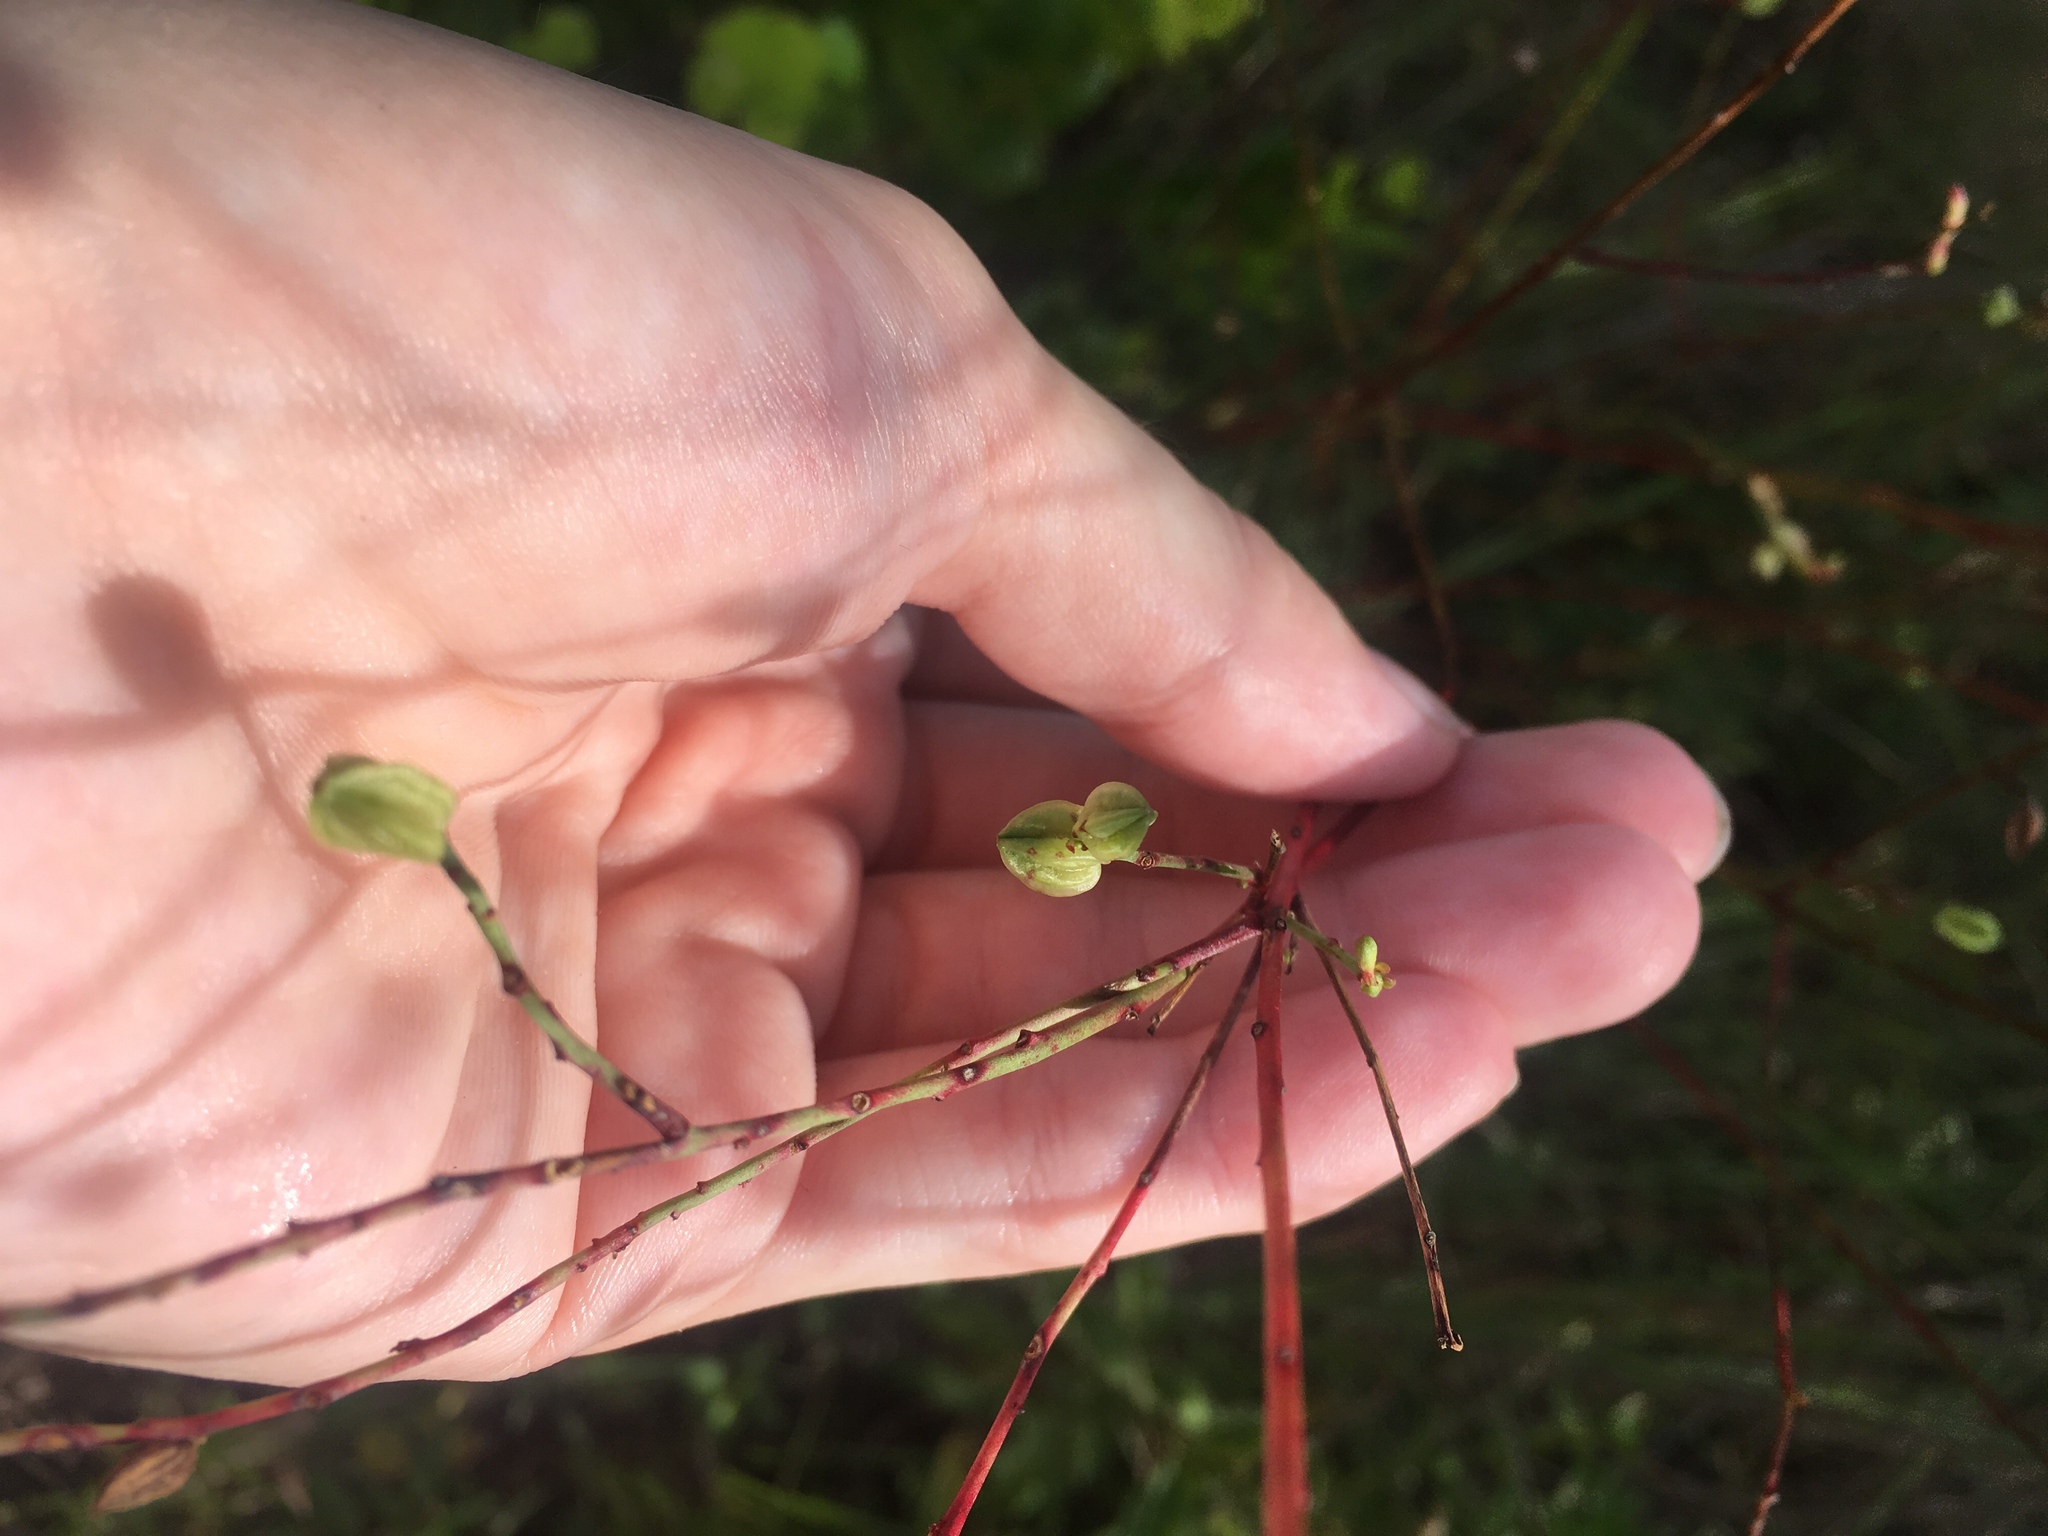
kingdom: Plantae
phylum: Tracheophyta
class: Magnoliopsida
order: Myrtales
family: Onagraceae
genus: Oenothera
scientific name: Oenothera simulans
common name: Southern beeblossom
